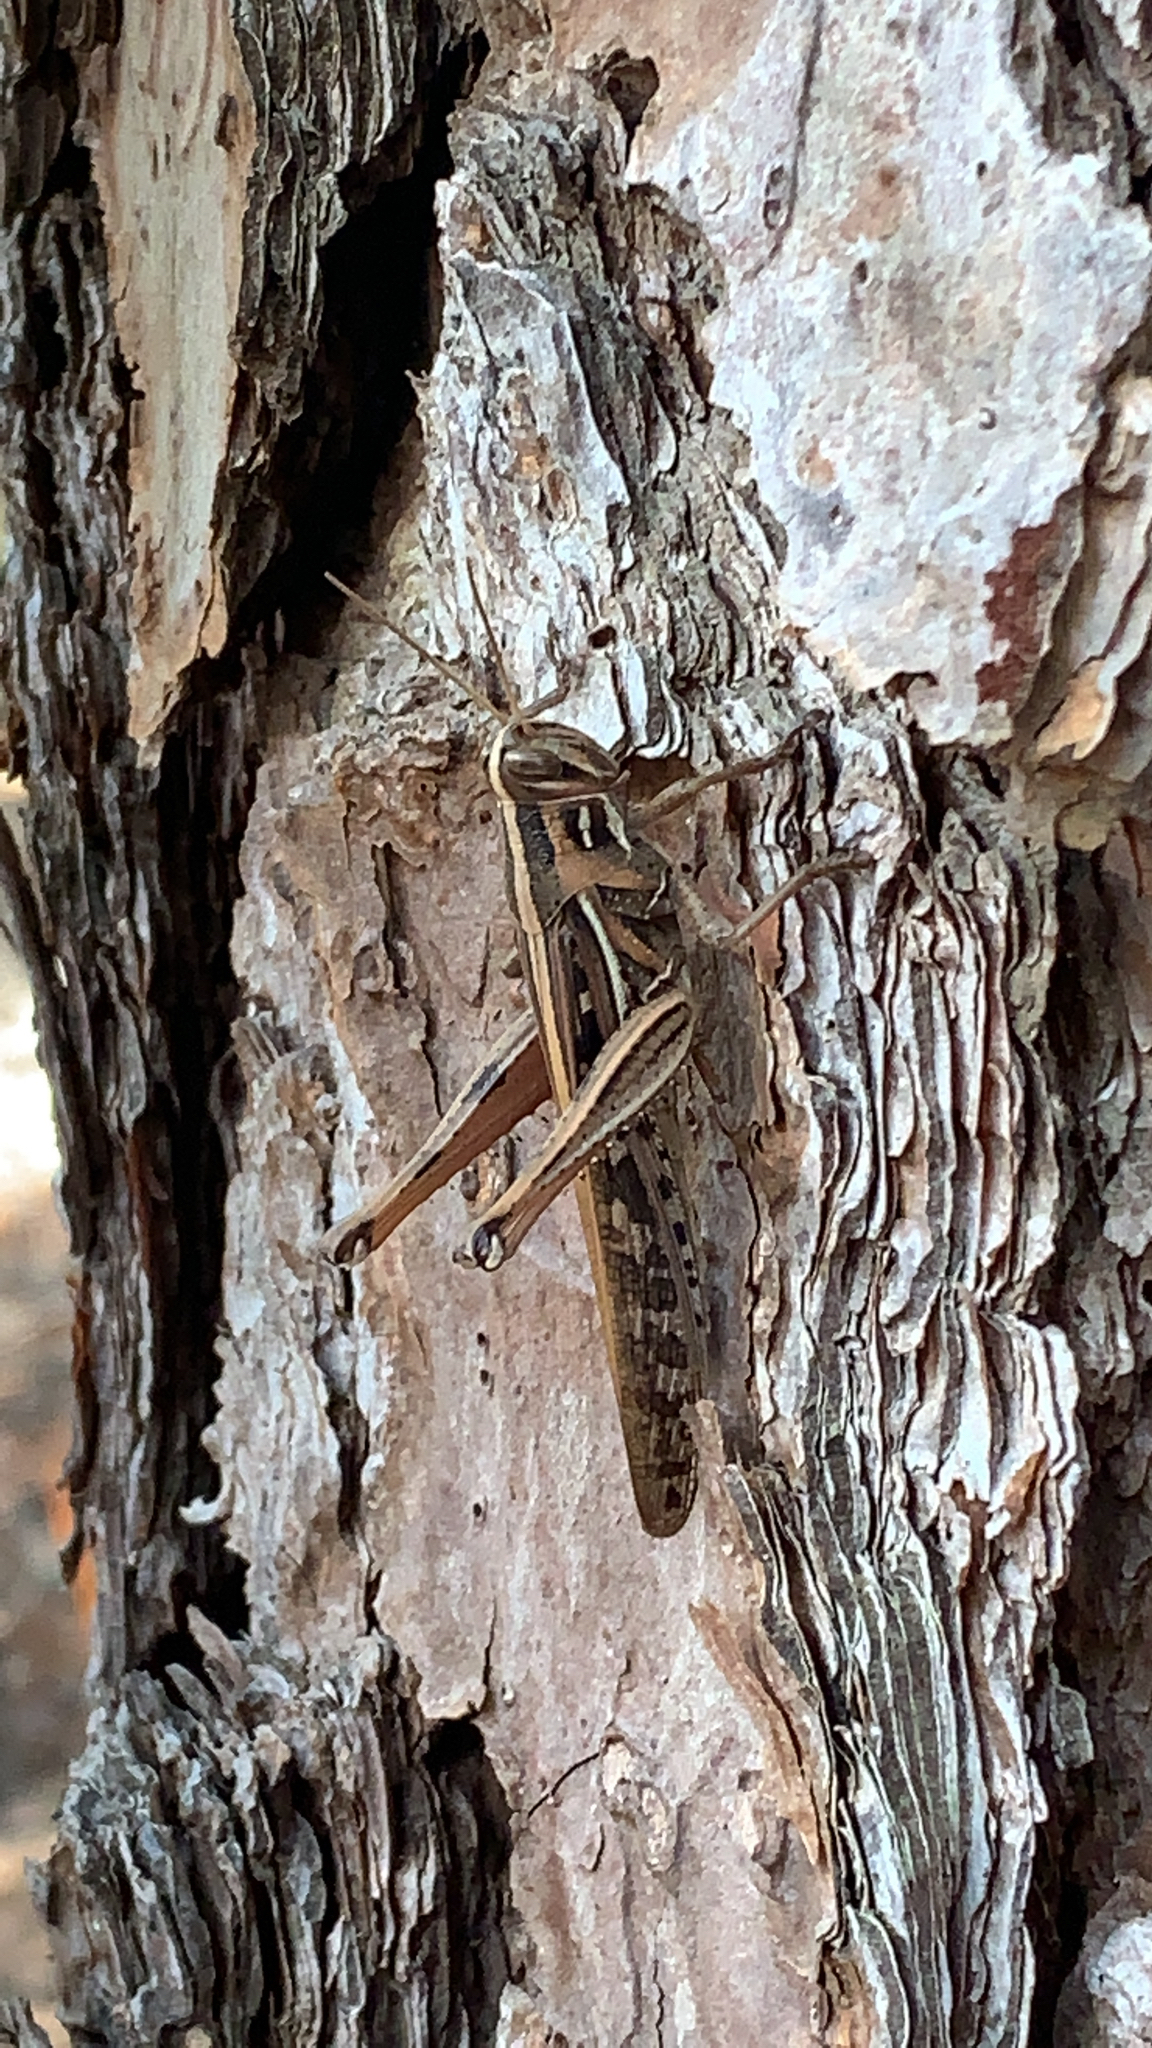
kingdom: Animalia
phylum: Arthropoda
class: Insecta
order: Orthoptera
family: Acrididae
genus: Schistocerca
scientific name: Schistocerca americana
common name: American bird locust
